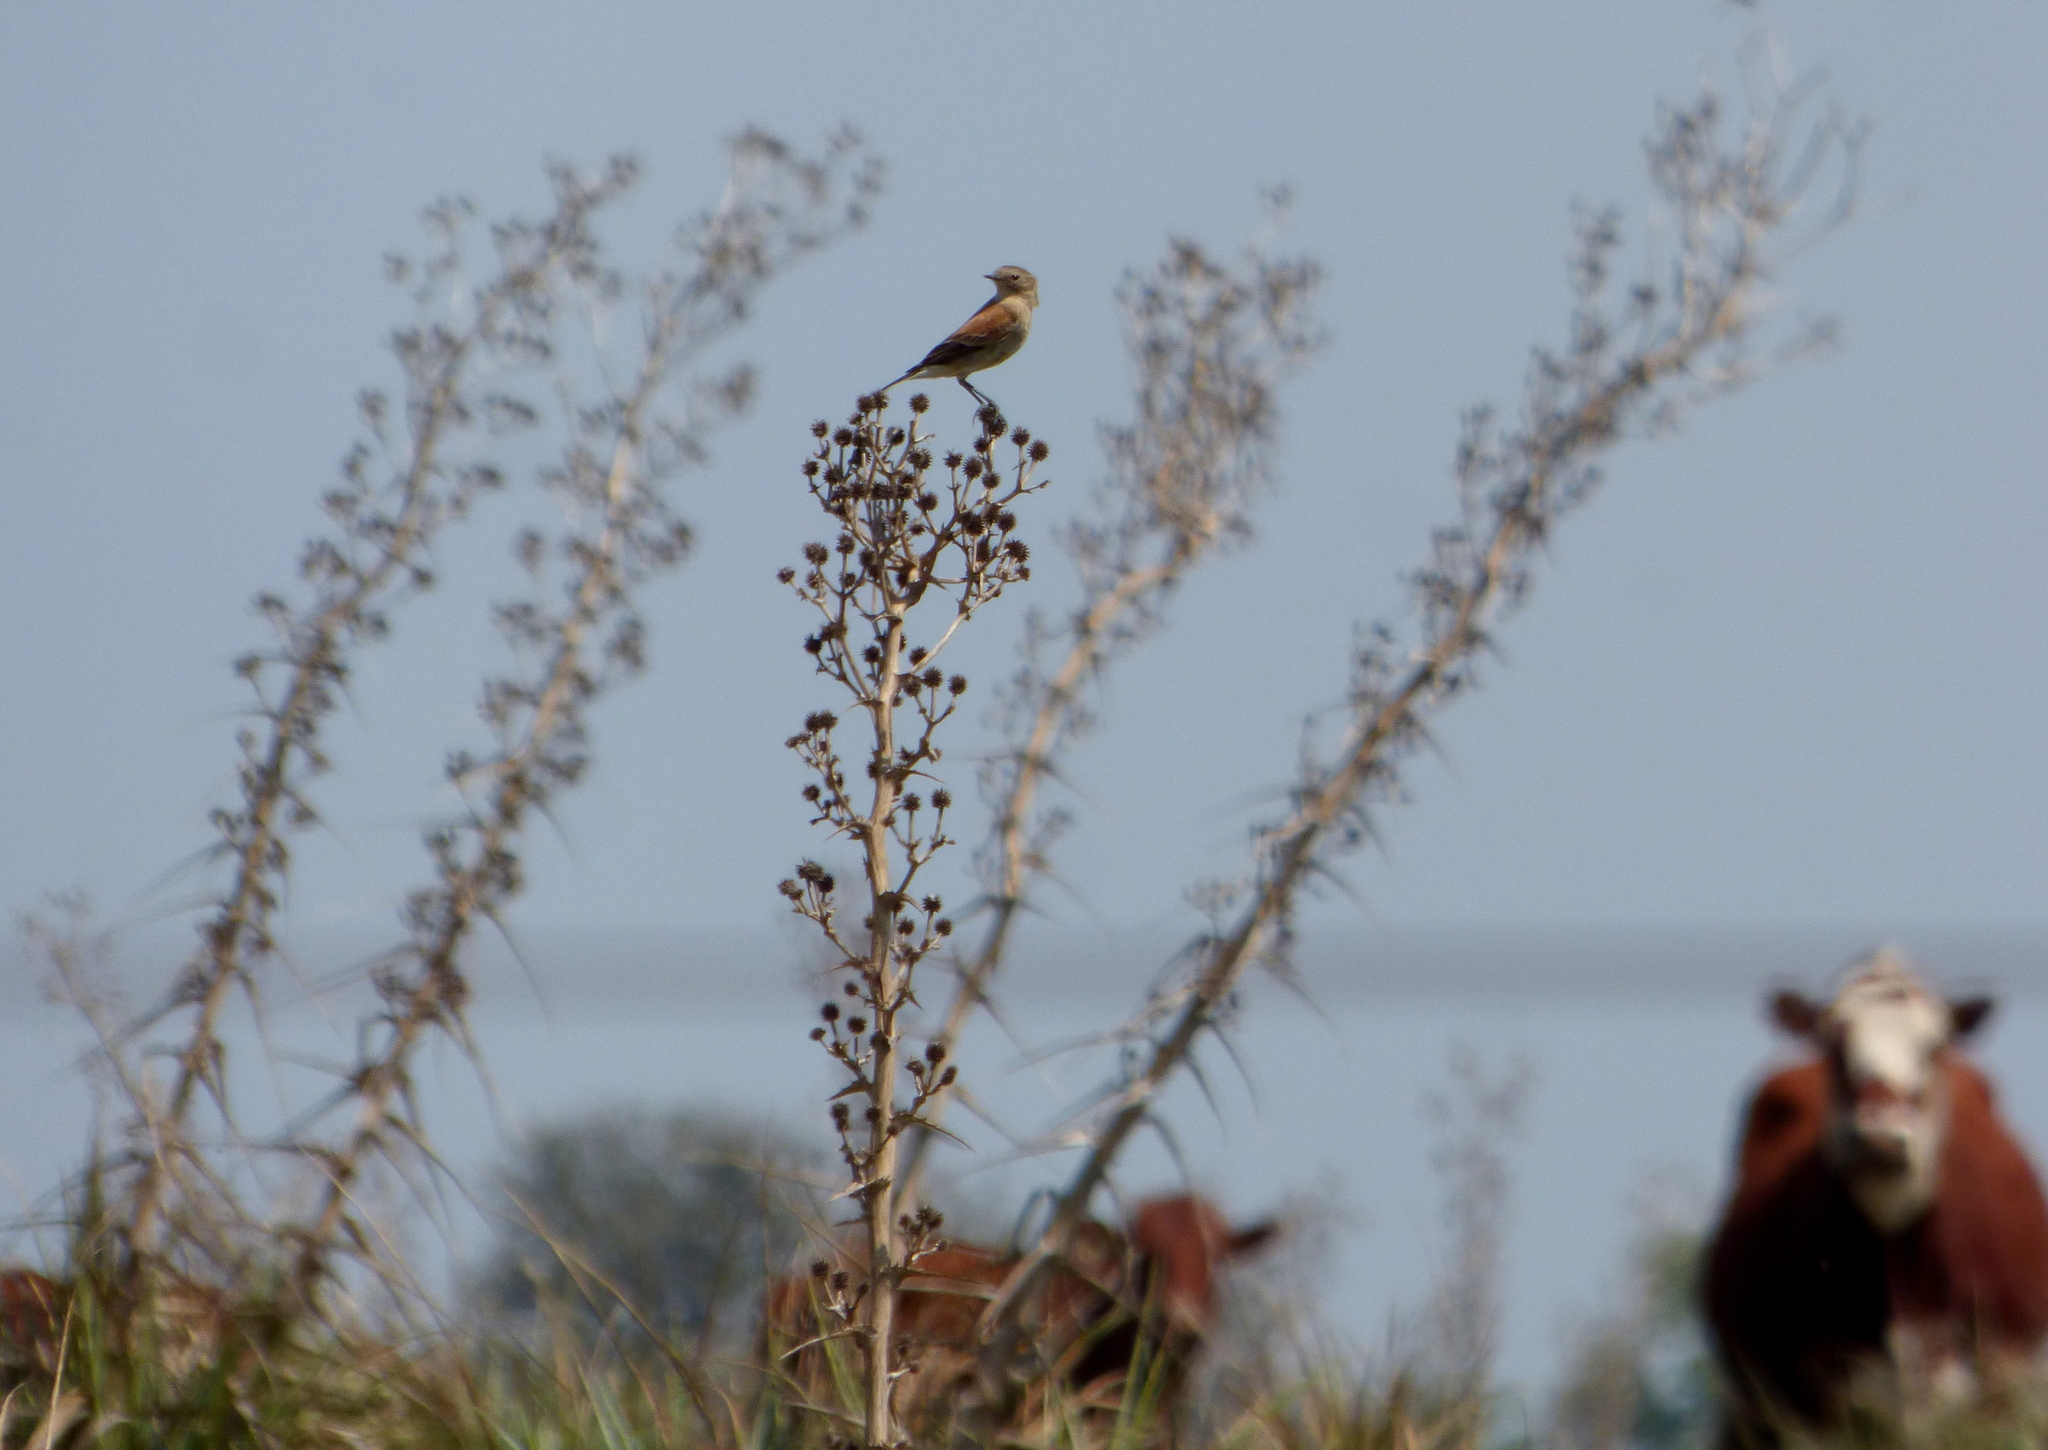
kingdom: Animalia
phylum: Chordata
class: Aves
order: Passeriformes
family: Tyrannidae
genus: Lessonia
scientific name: Lessonia rufa
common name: Austral negrito
